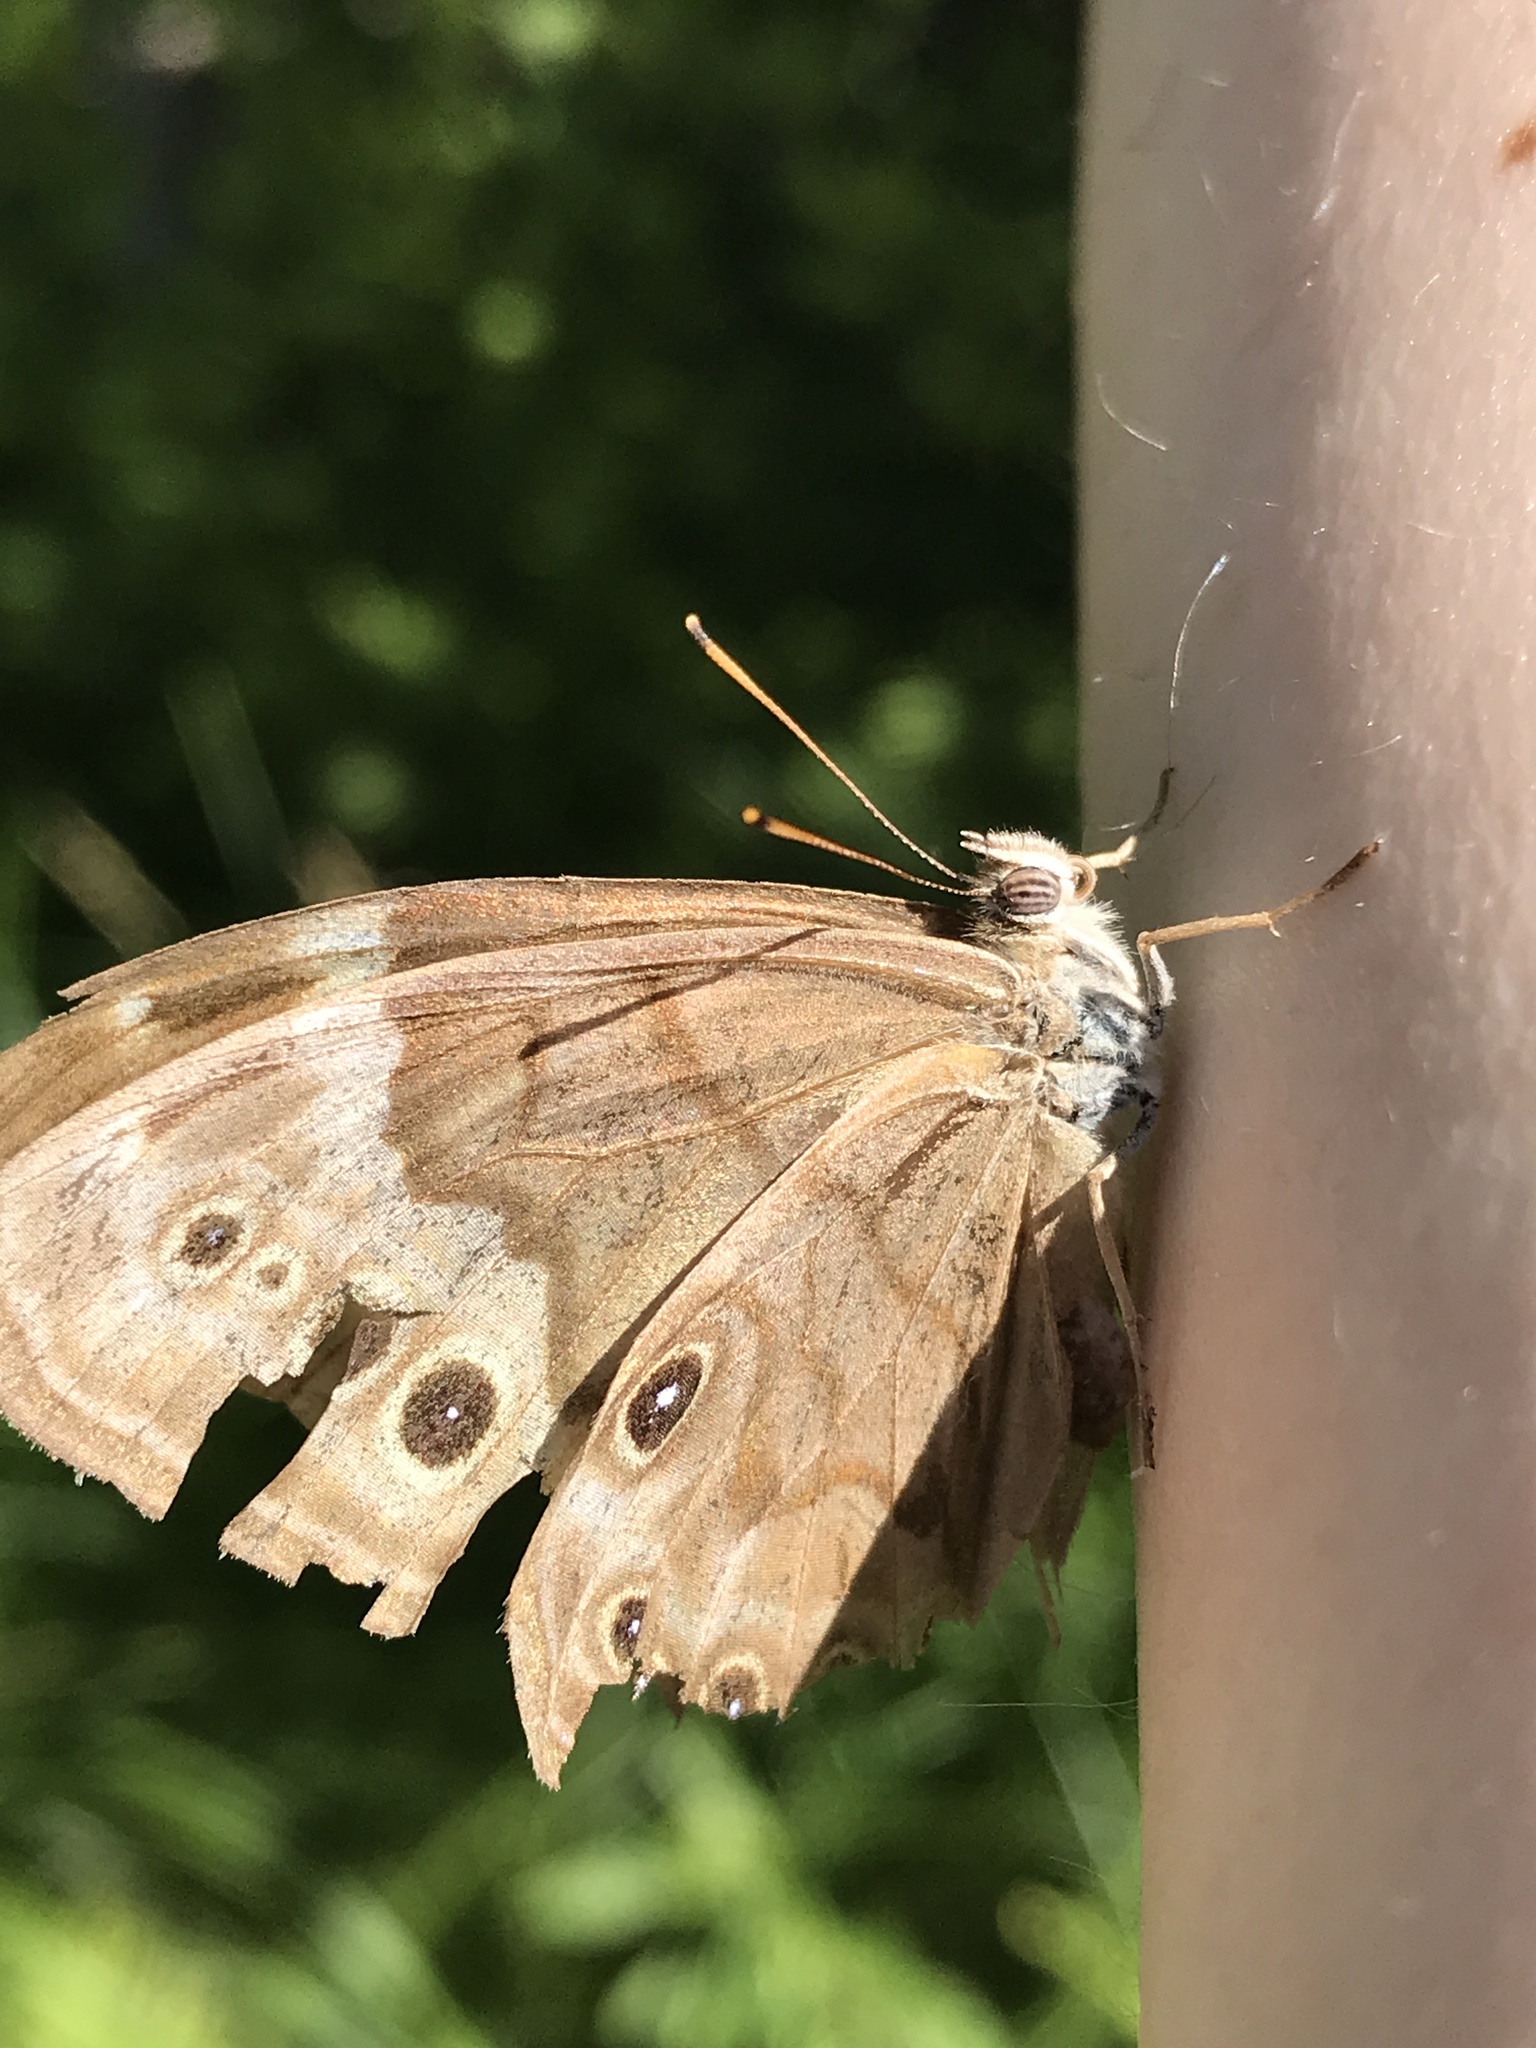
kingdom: Animalia
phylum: Arthropoda
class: Insecta
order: Lepidoptera
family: Nymphalidae
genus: Lethe
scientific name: Lethe anthedon
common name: Northern pearly-eye
